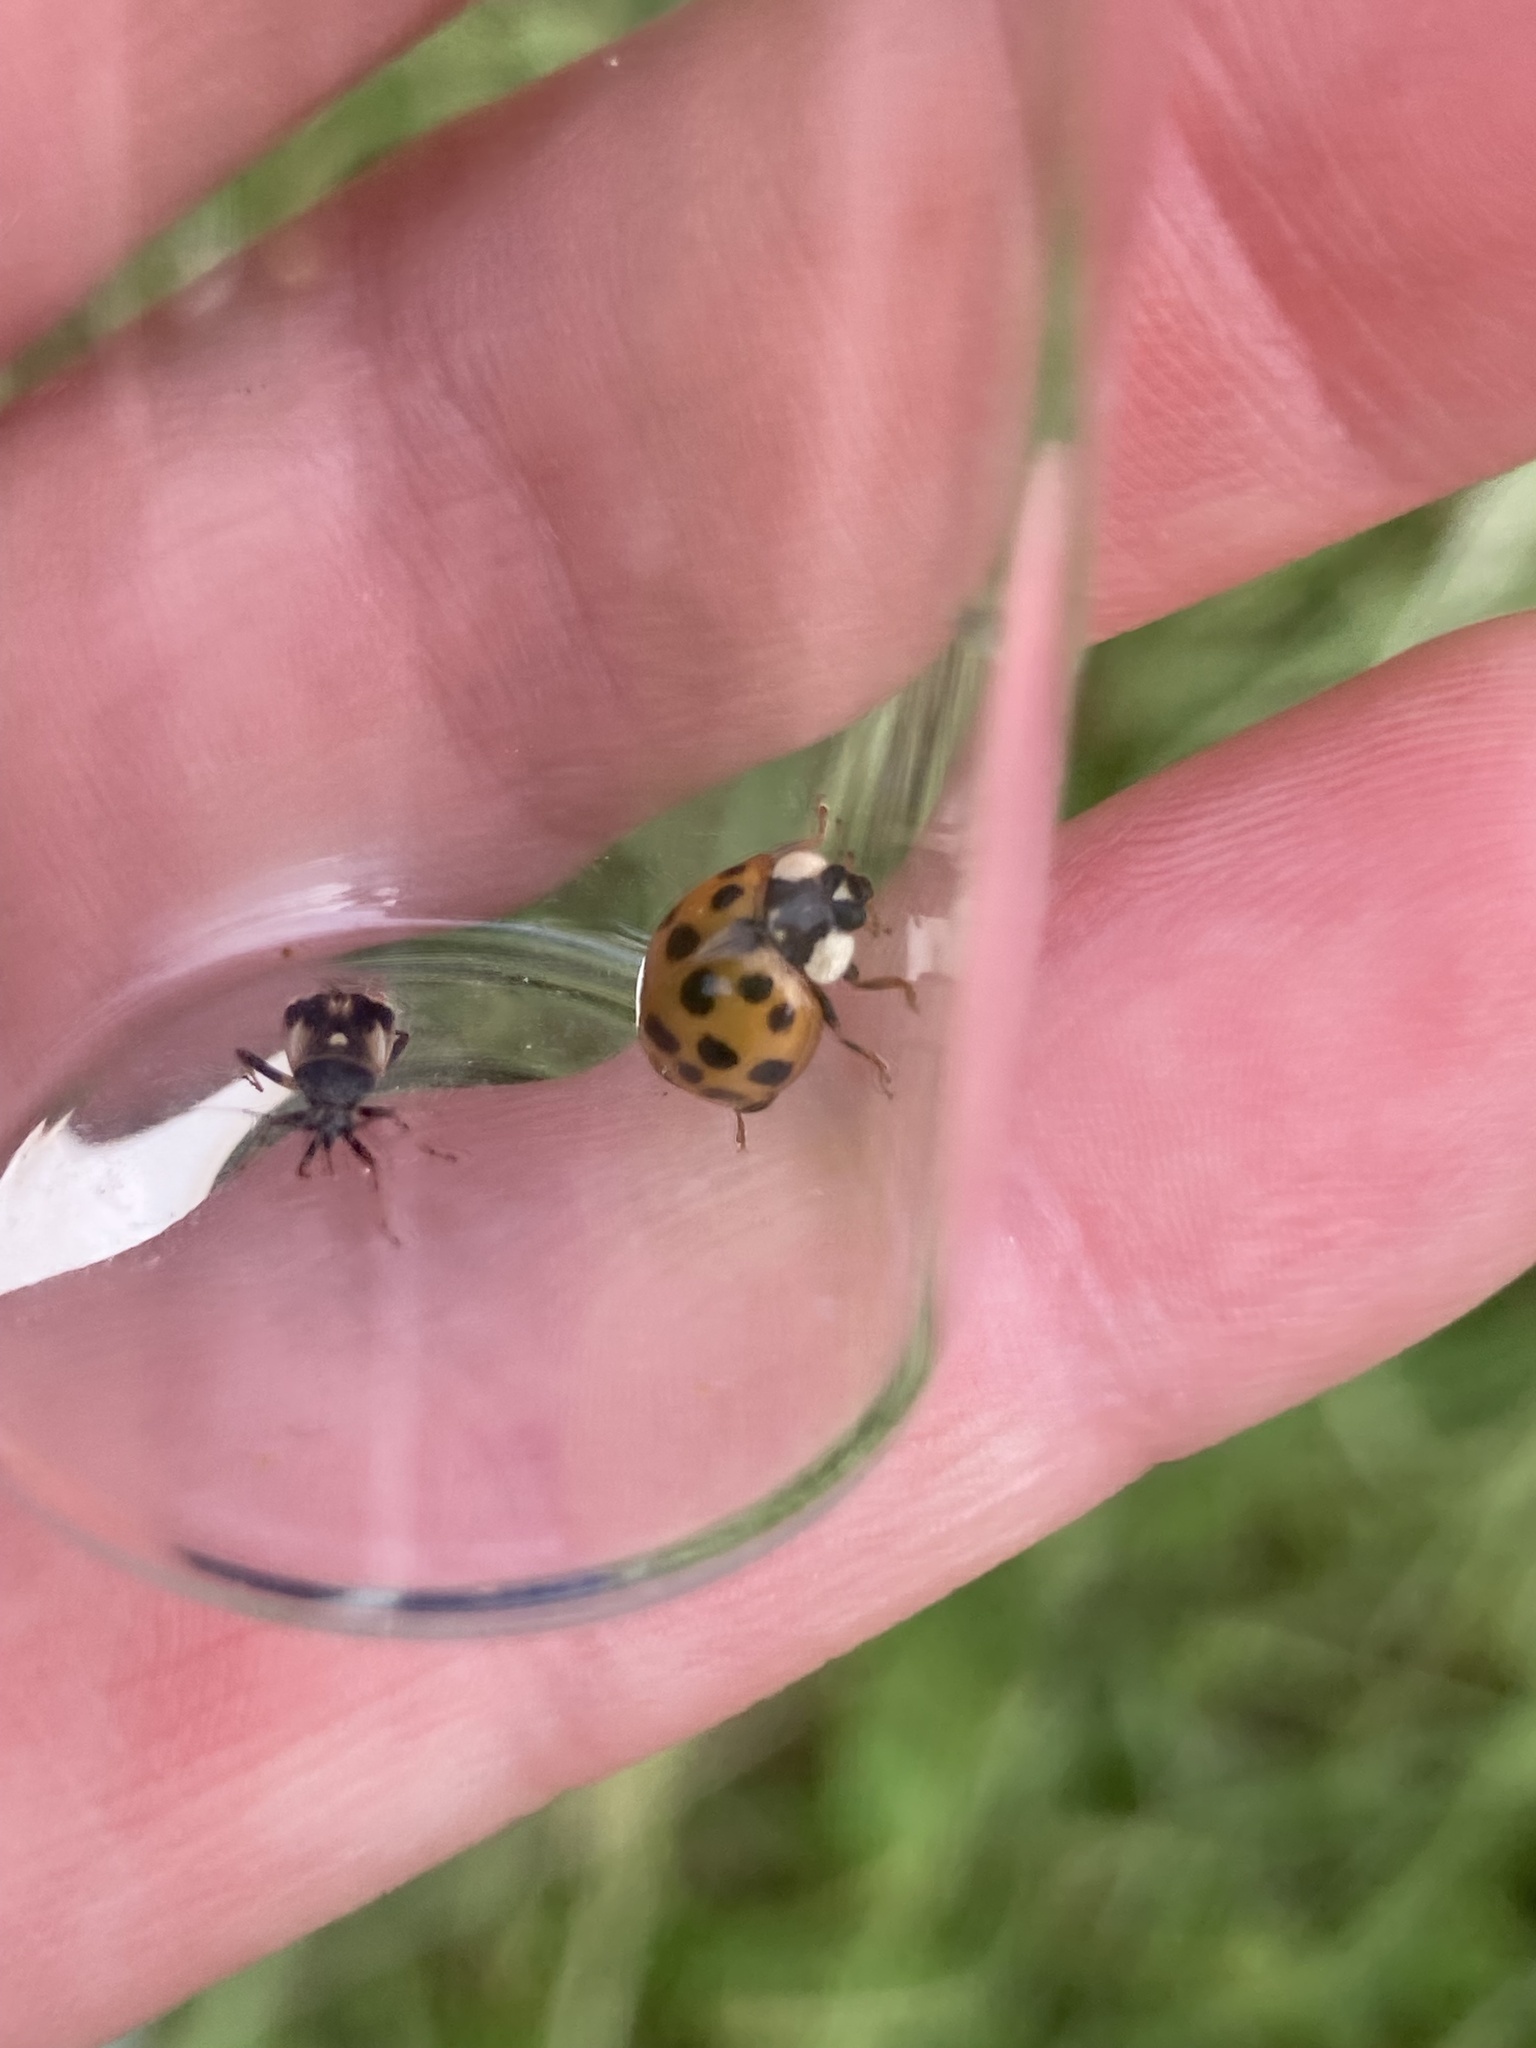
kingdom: Animalia
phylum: Arthropoda
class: Insecta
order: Coleoptera
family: Coccinellidae
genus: Harmonia
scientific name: Harmonia axyridis
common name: Harlequin ladybird
